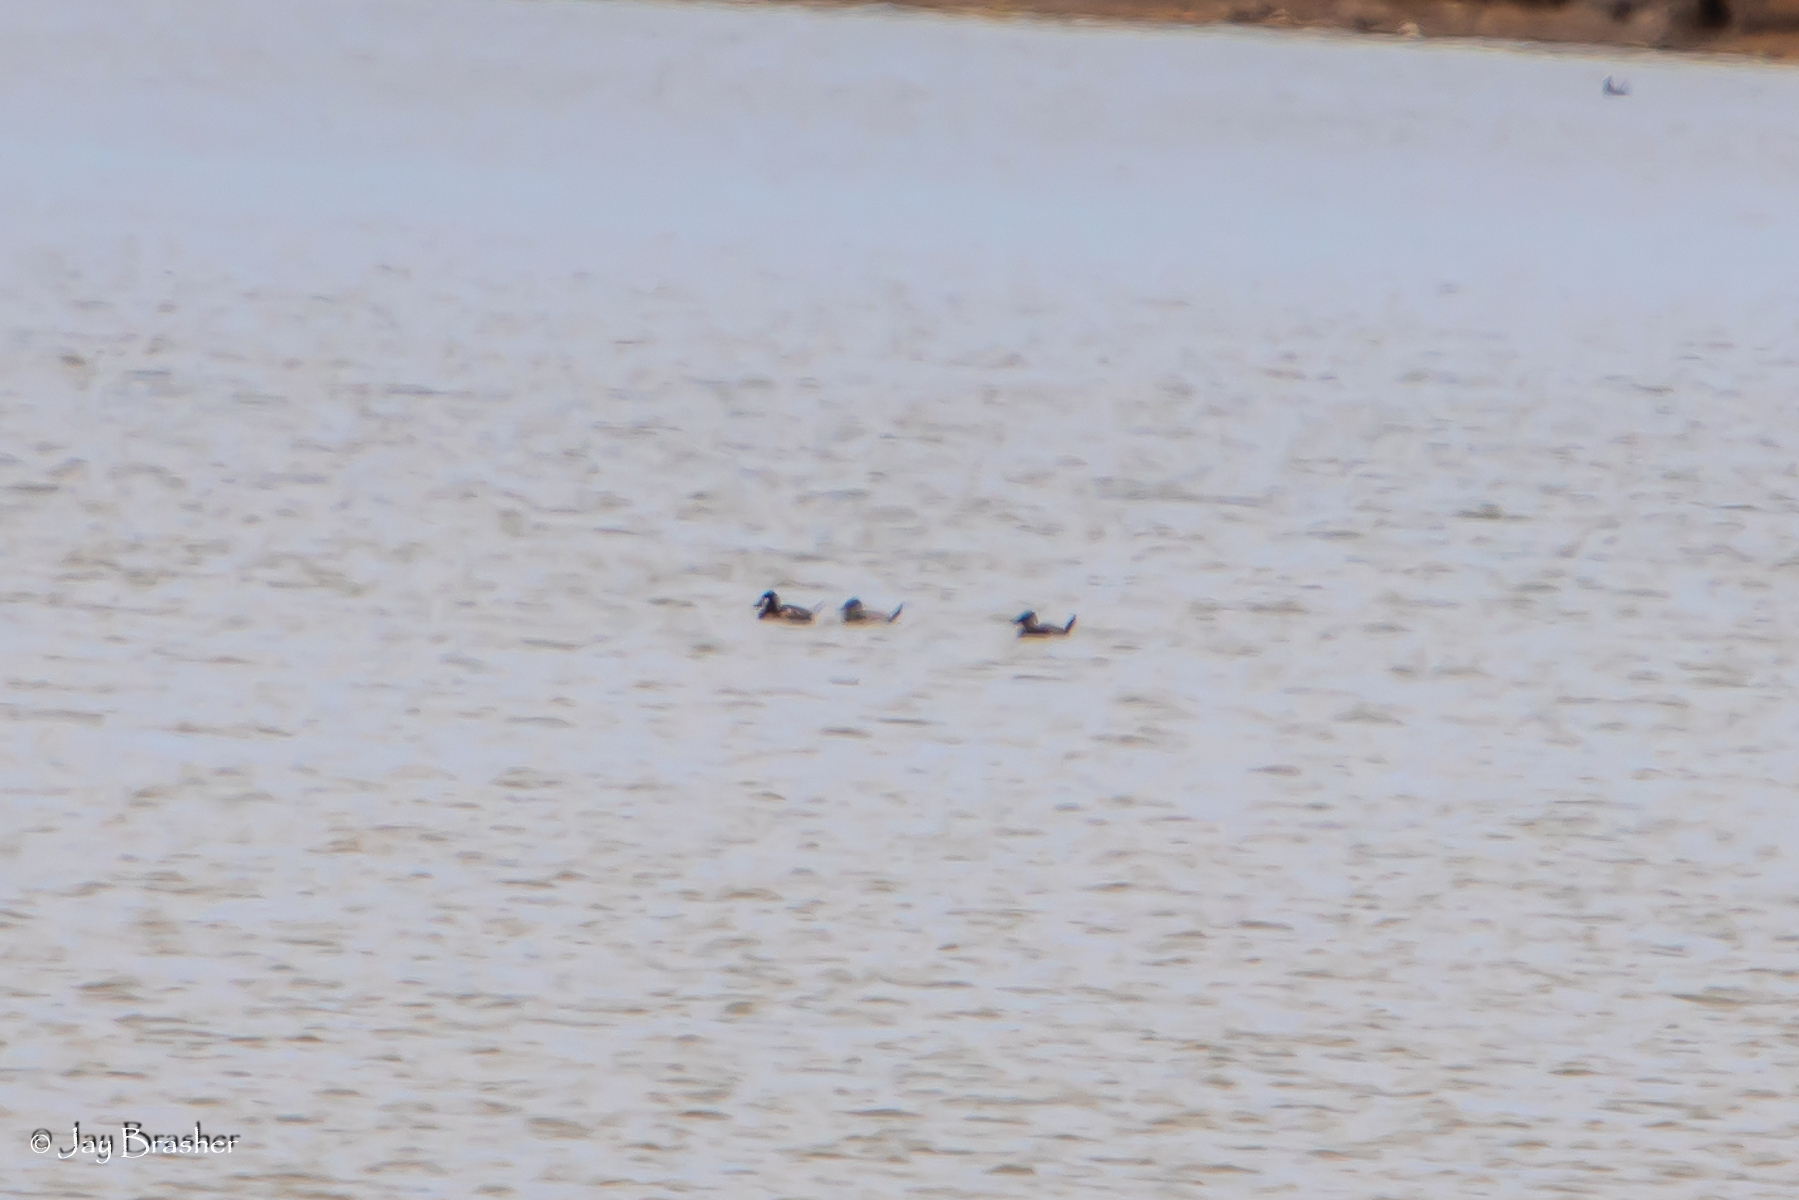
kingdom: Animalia
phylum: Chordata
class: Aves
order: Anseriformes
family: Anatidae
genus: Oxyura
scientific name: Oxyura jamaicensis
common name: Ruddy duck
